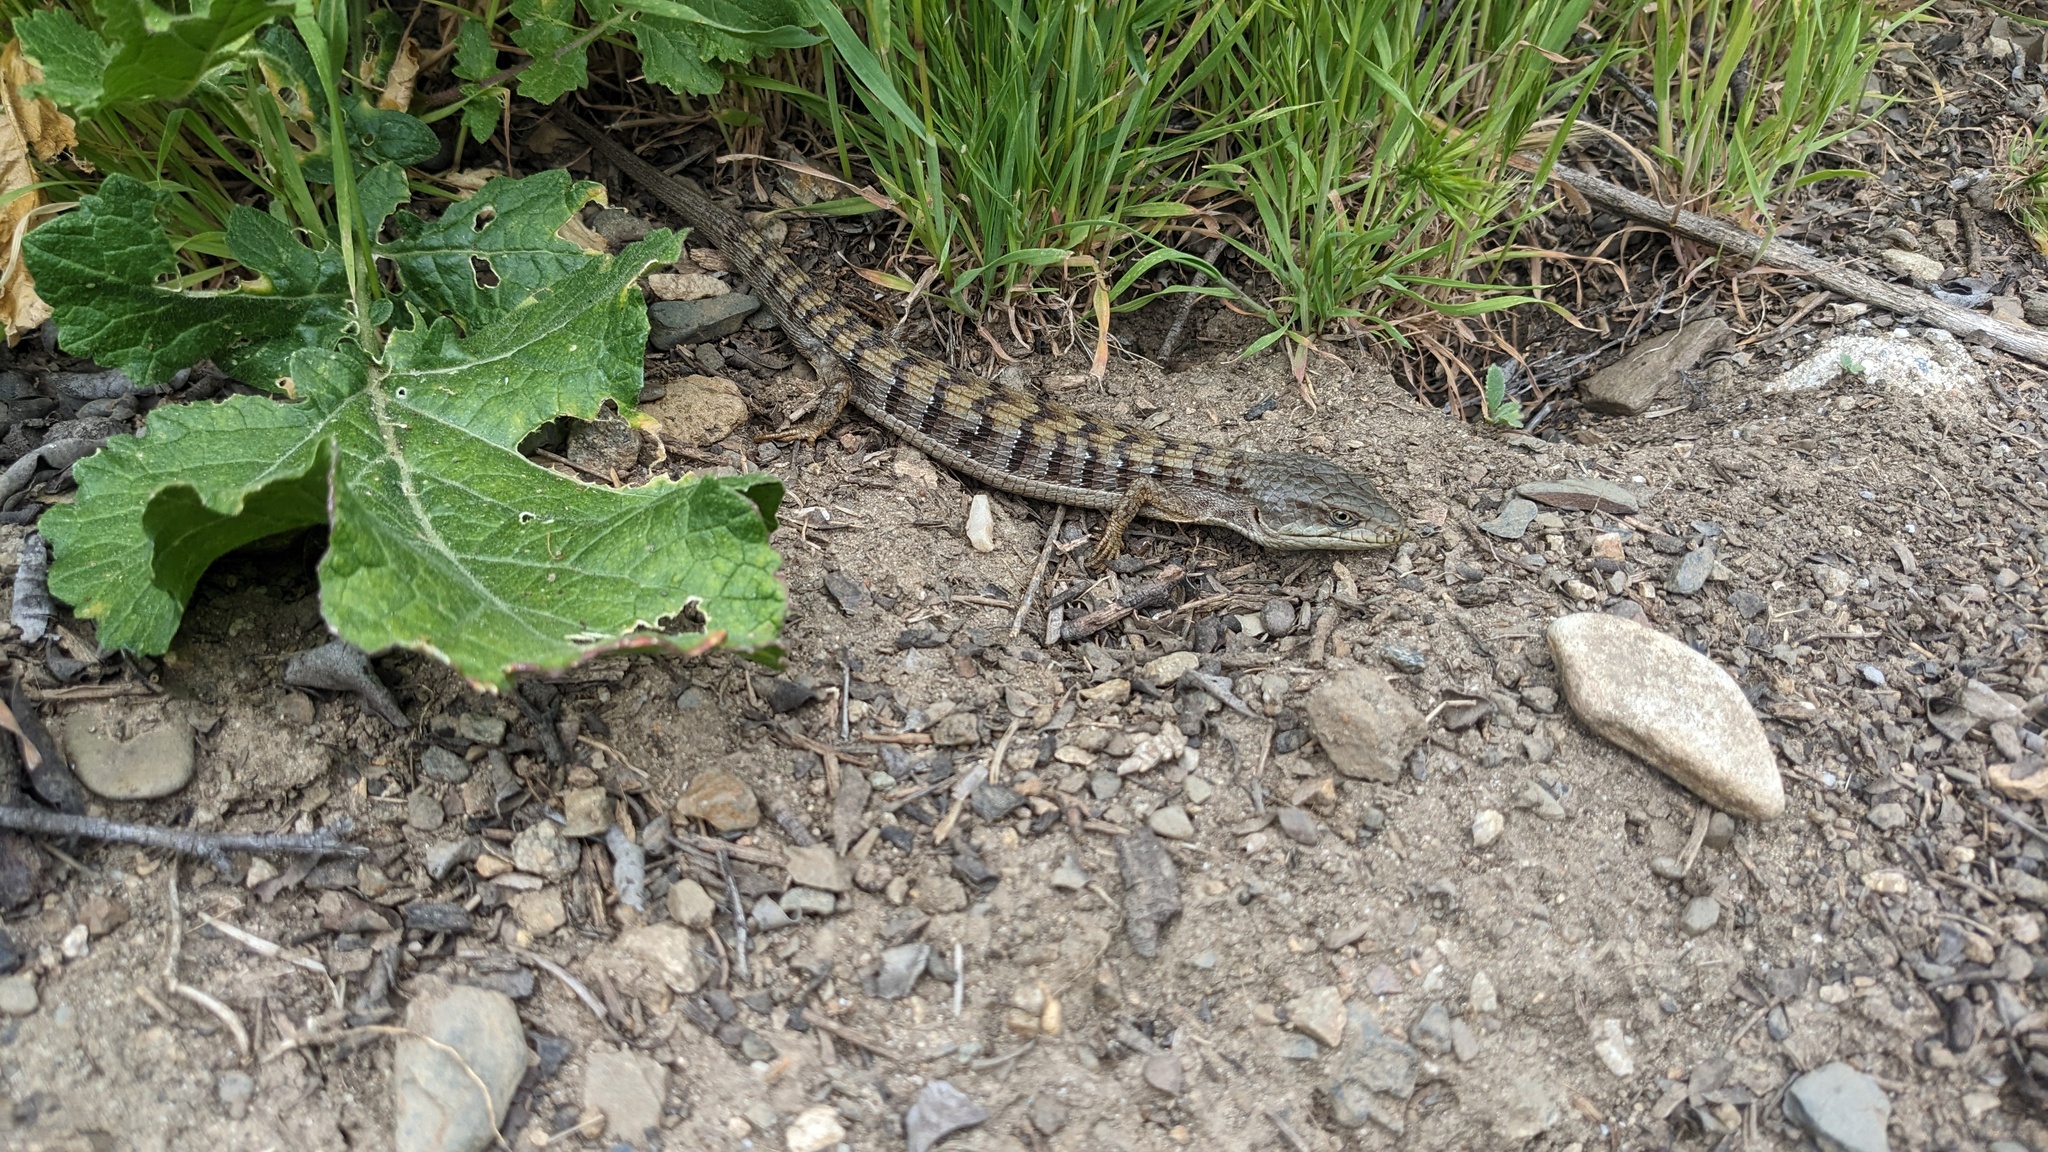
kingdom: Animalia
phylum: Chordata
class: Squamata
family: Anguidae
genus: Elgaria
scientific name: Elgaria multicarinata
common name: Southern alligator lizard
